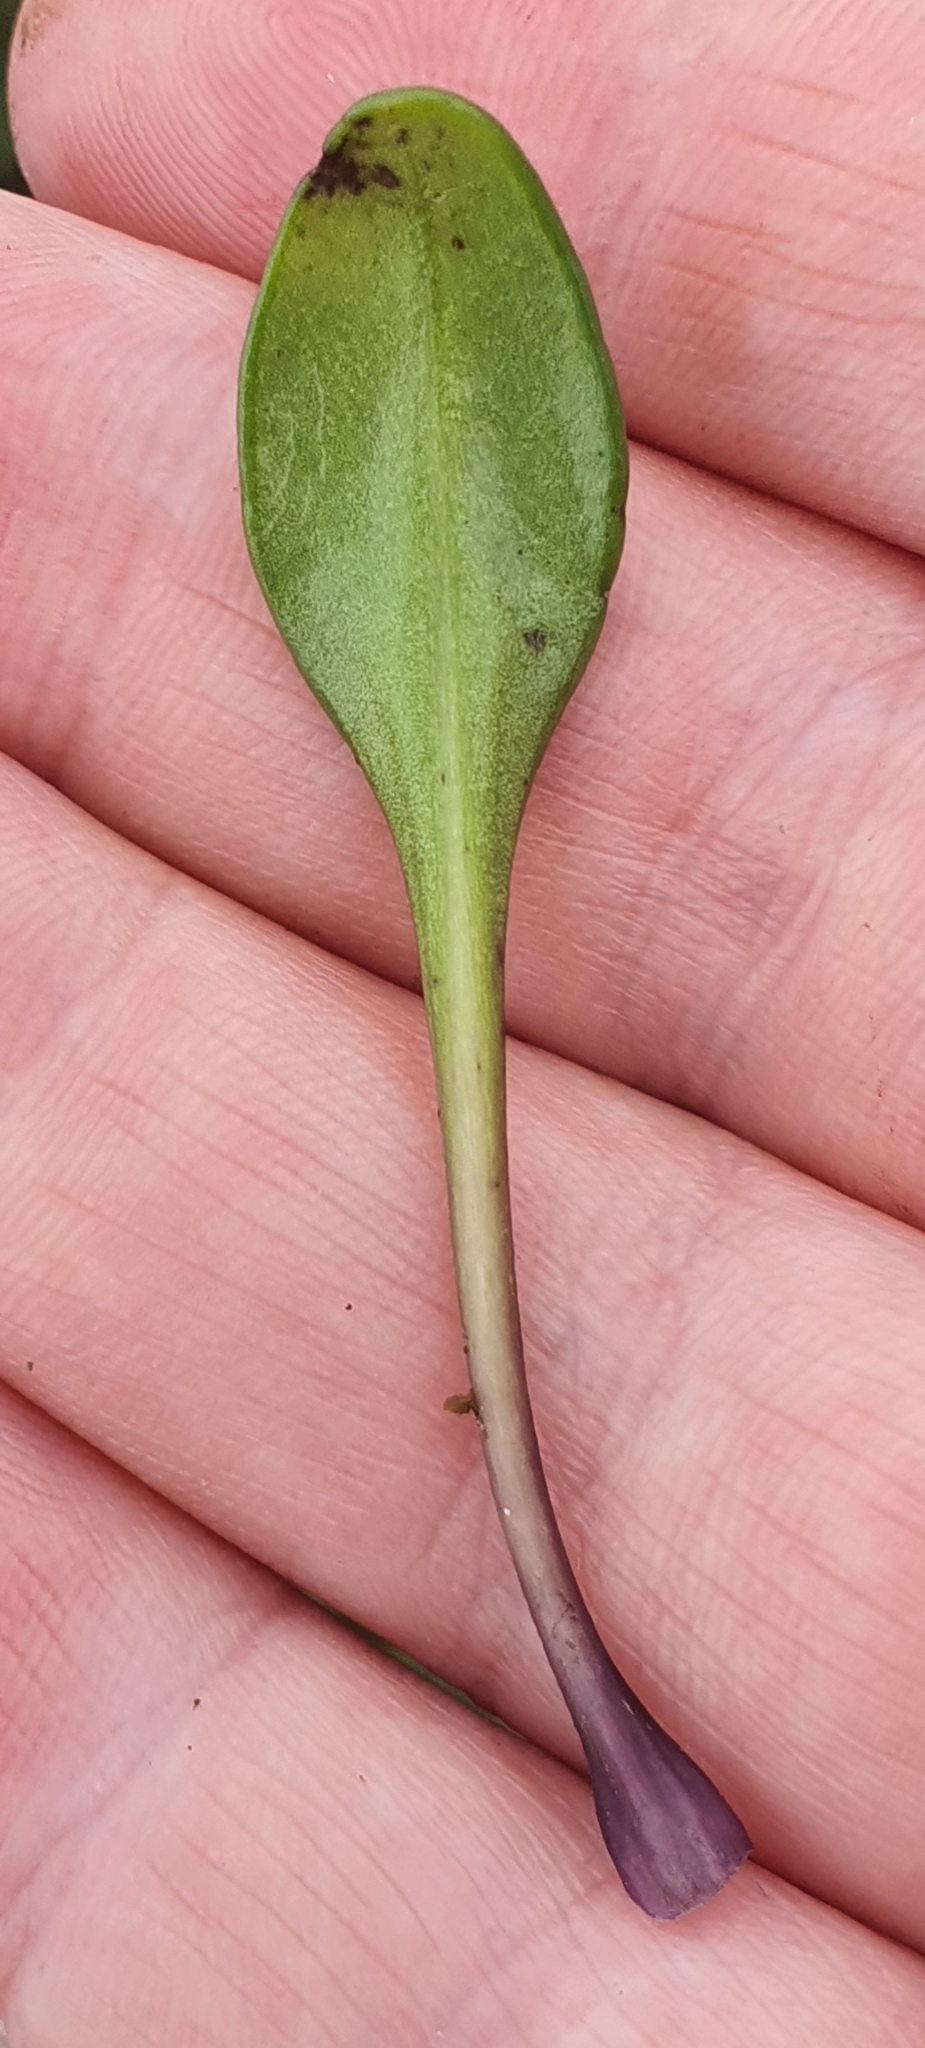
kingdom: Plantae
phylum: Tracheophyta
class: Magnoliopsida
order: Gentianales
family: Gentianaceae
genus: Gentianella
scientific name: Gentianella saxosa
